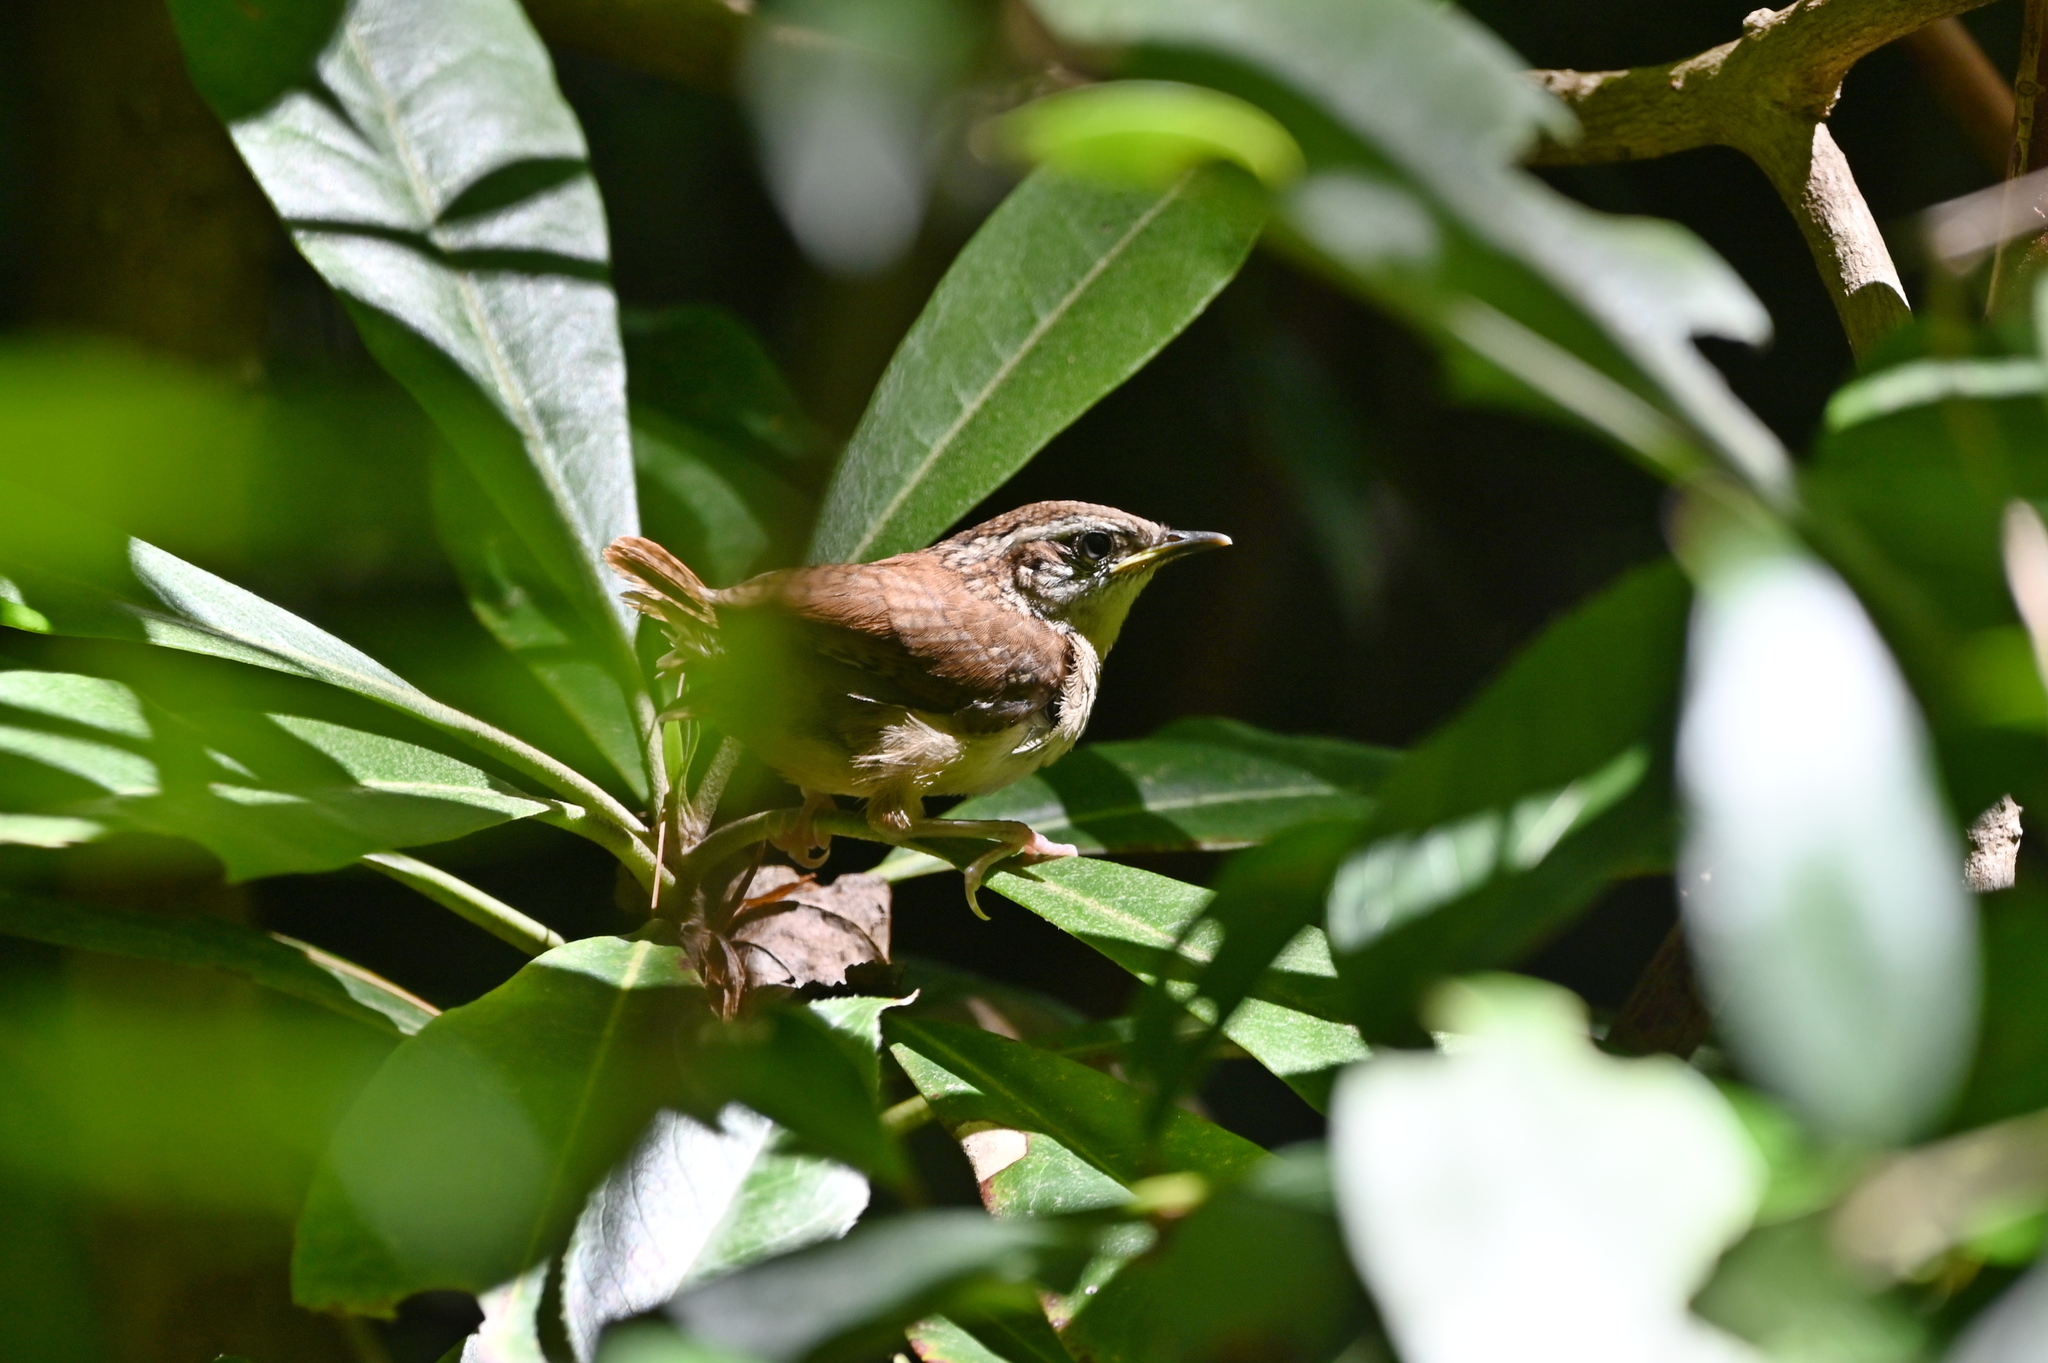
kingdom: Animalia
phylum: Chordata
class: Aves
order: Passeriformes
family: Troglodytidae
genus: Thryothorus
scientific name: Thryothorus ludovicianus
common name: Carolina wren
